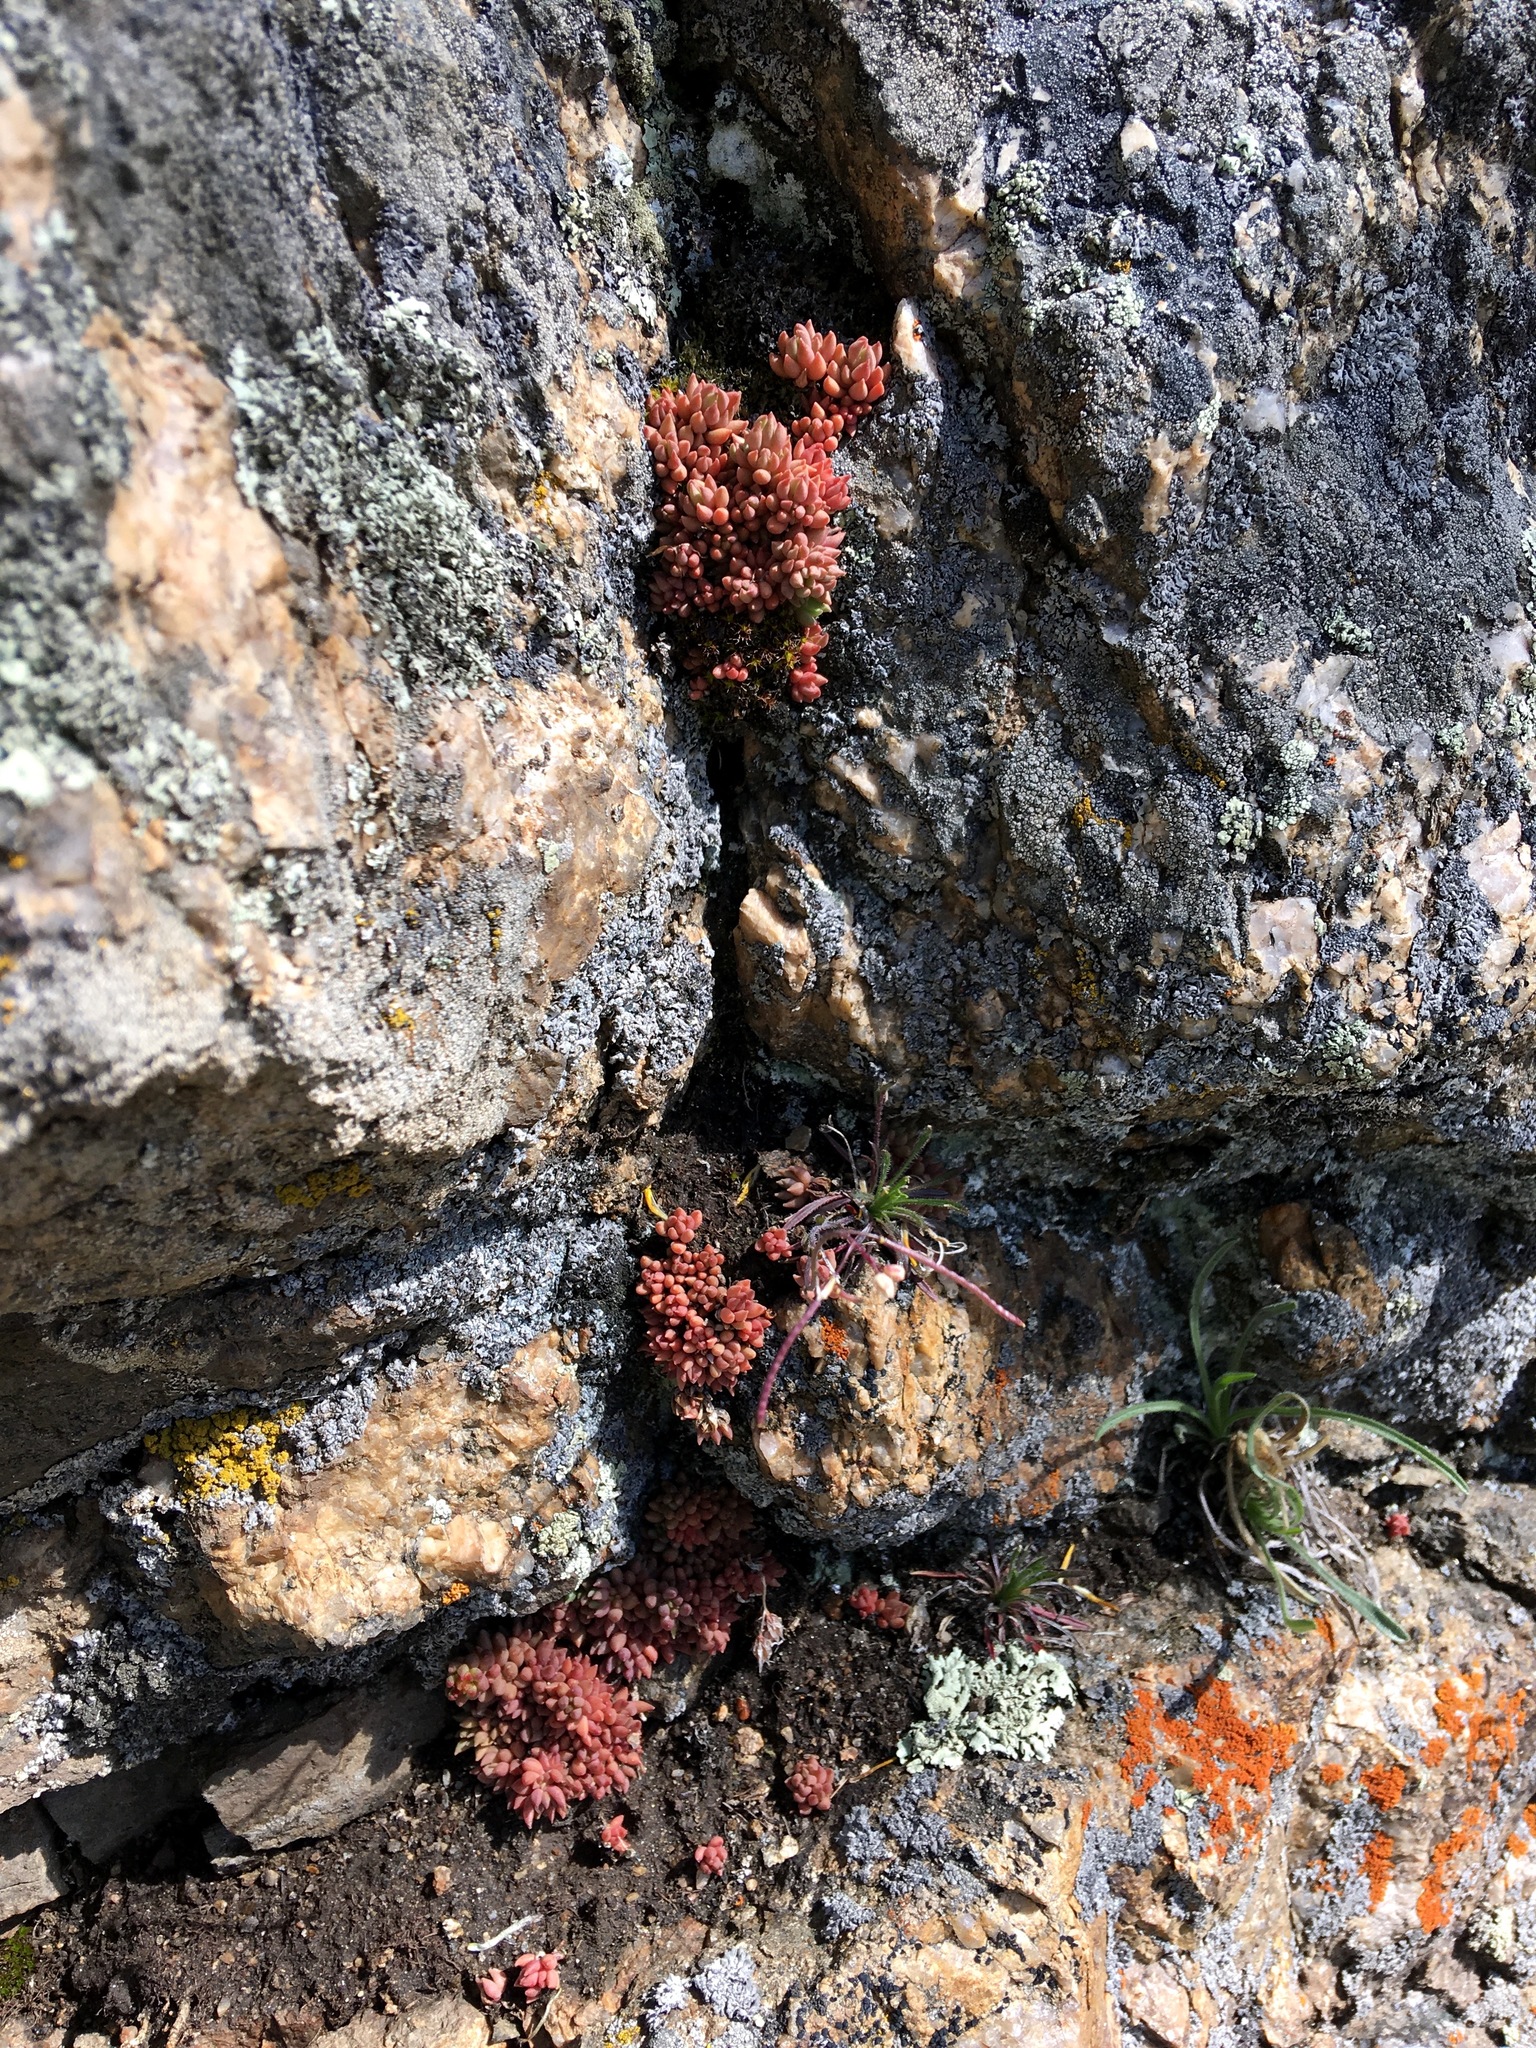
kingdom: Plantae
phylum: Tracheophyta
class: Magnoliopsida
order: Saxifragales
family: Crassulaceae
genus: Sedum
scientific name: Sedum lanceolatum
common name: Common stonecrop
